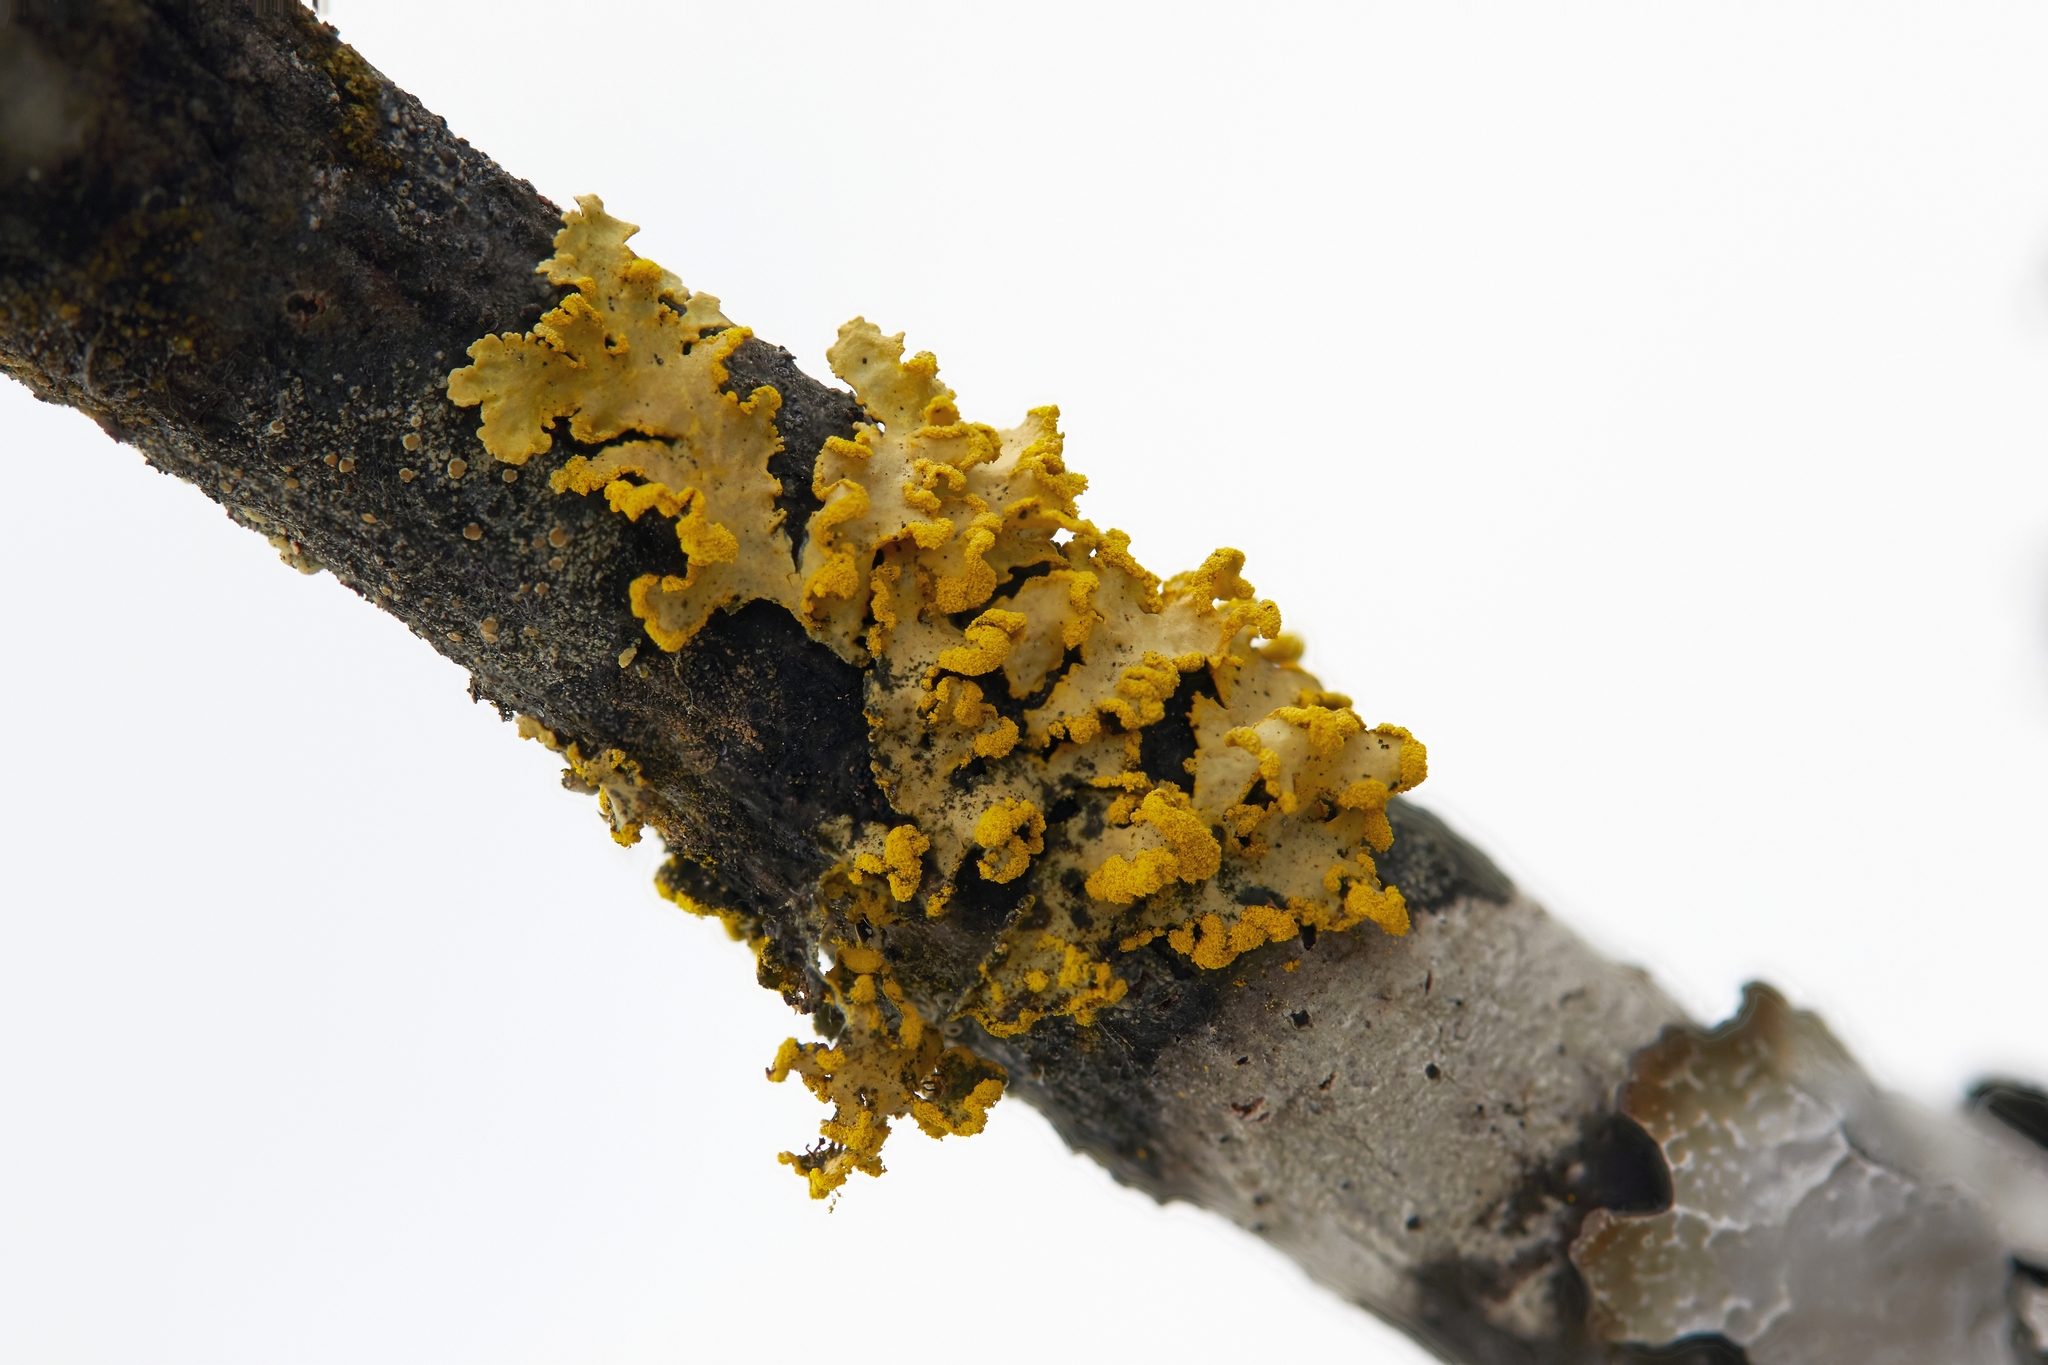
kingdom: Fungi
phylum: Ascomycota
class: Lecanoromycetes
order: Lecanorales
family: Parmeliaceae
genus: Vulpicida
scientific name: Vulpicida pinastri
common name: Powdered sunshine lichen
